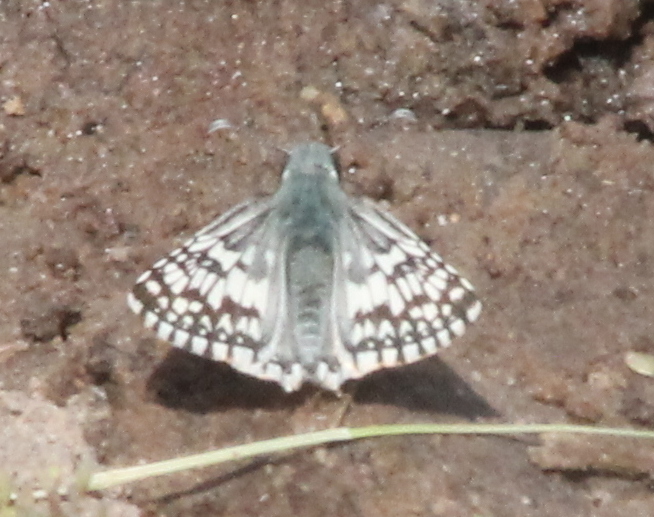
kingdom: Animalia
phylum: Arthropoda
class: Insecta
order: Lepidoptera
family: Hesperiidae
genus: Burnsius
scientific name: Burnsius communis
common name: Common checkered-skipper
